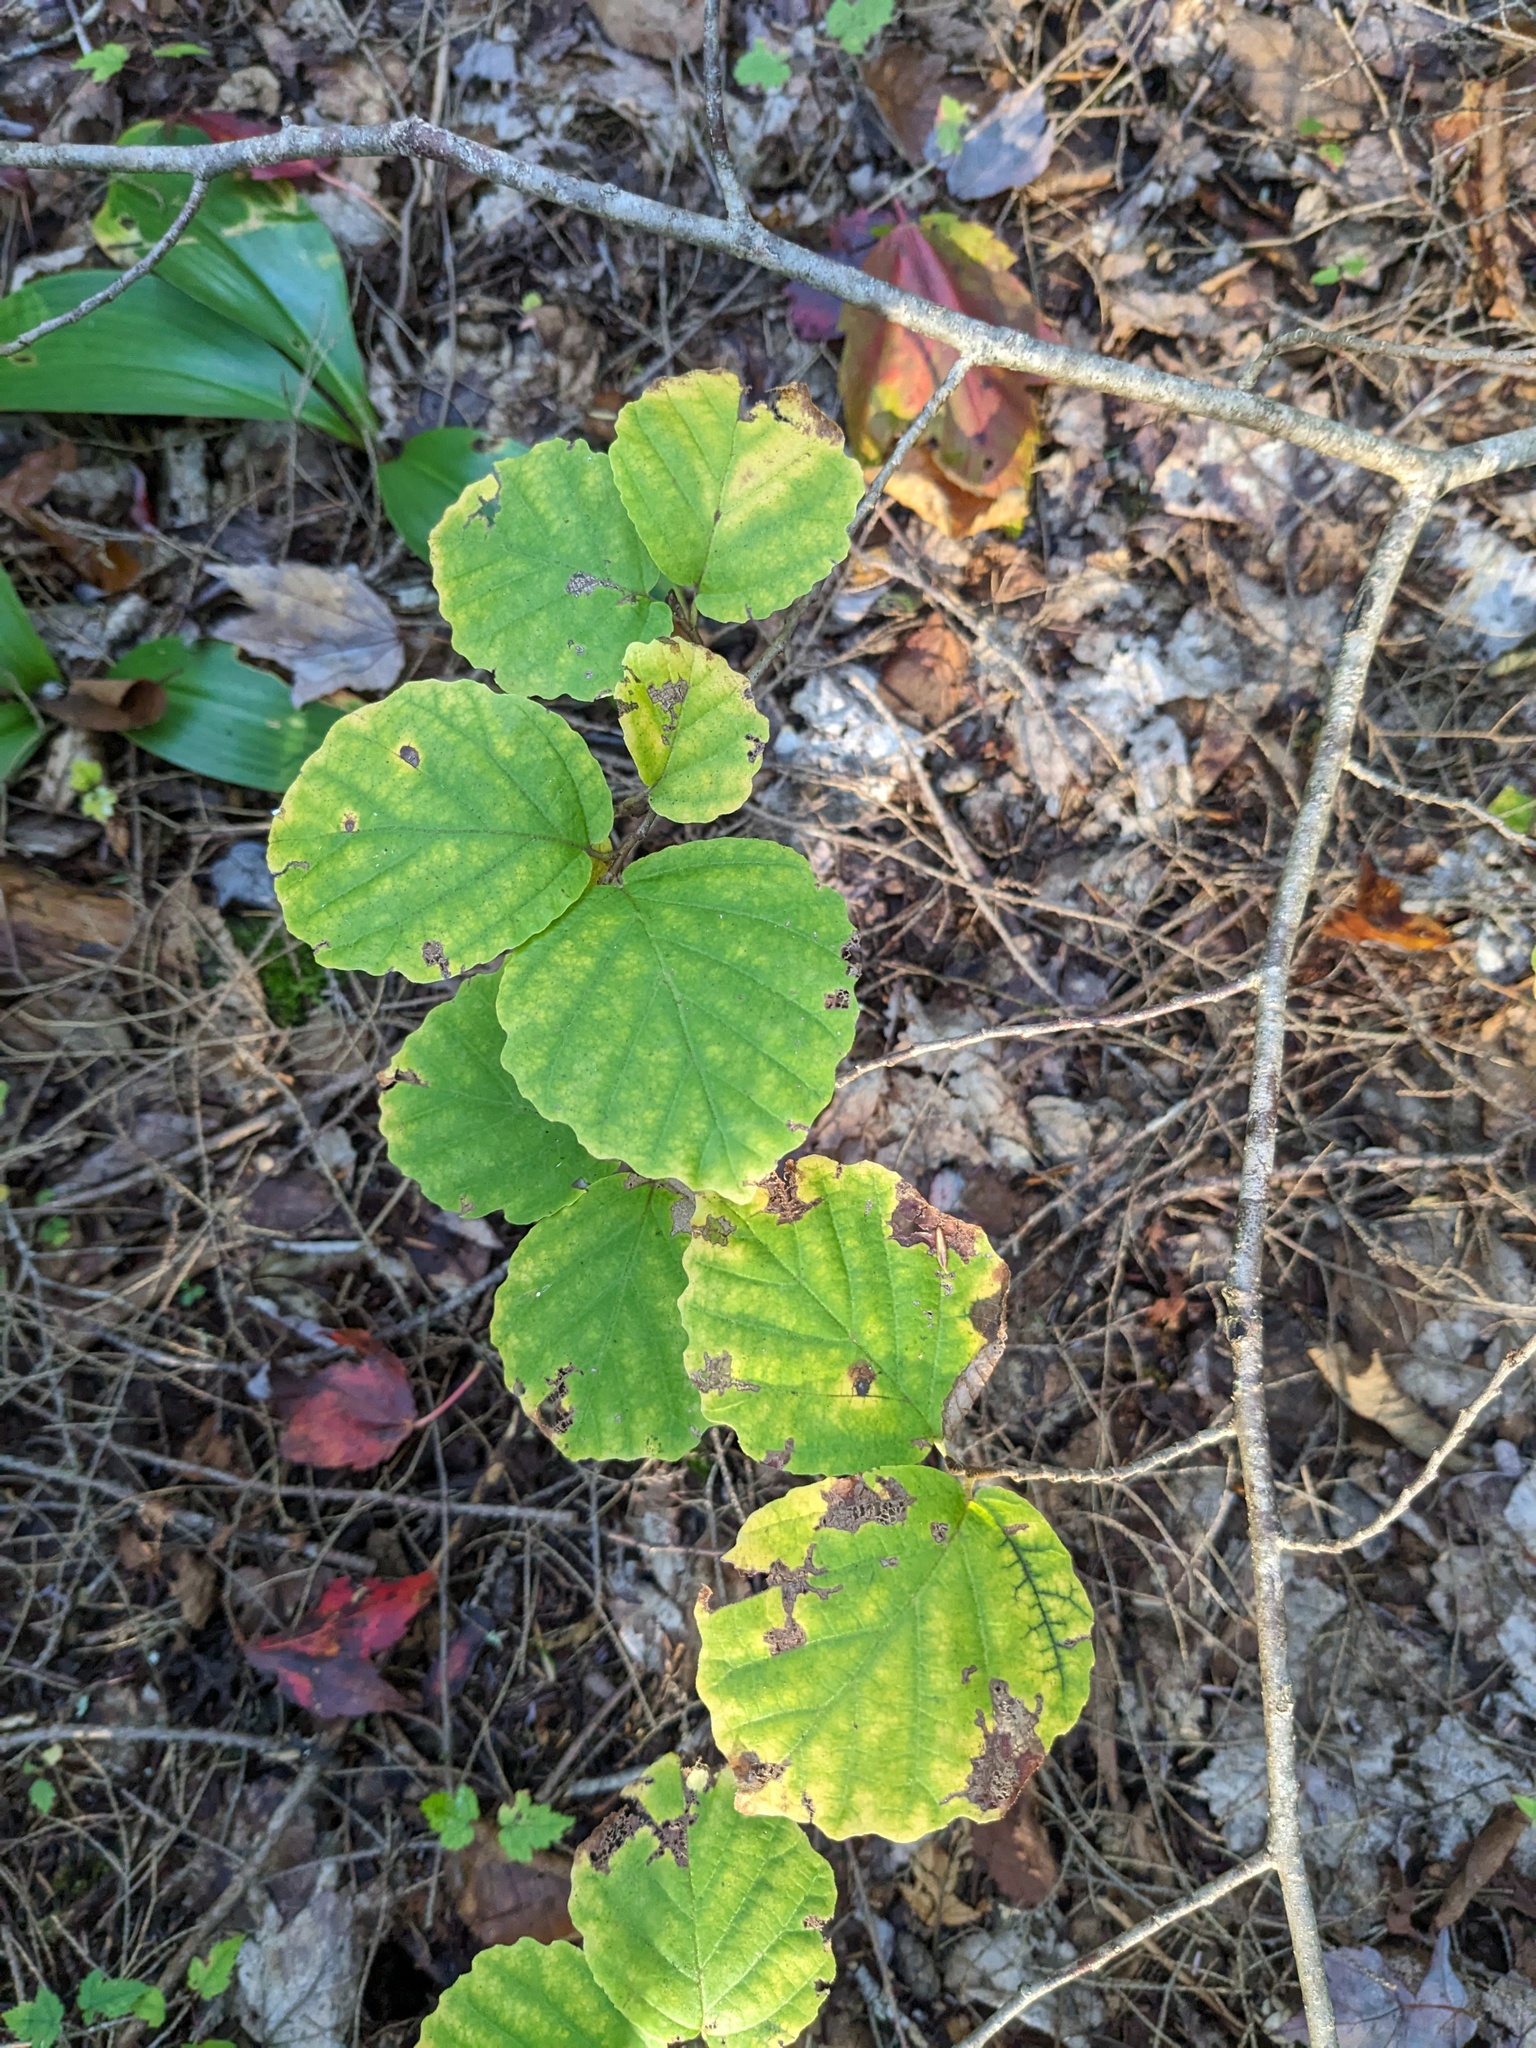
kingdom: Plantae
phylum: Tracheophyta
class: Magnoliopsida
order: Saxifragales
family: Hamamelidaceae
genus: Hamamelis
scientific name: Hamamelis virginiana
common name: Witch-hazel
